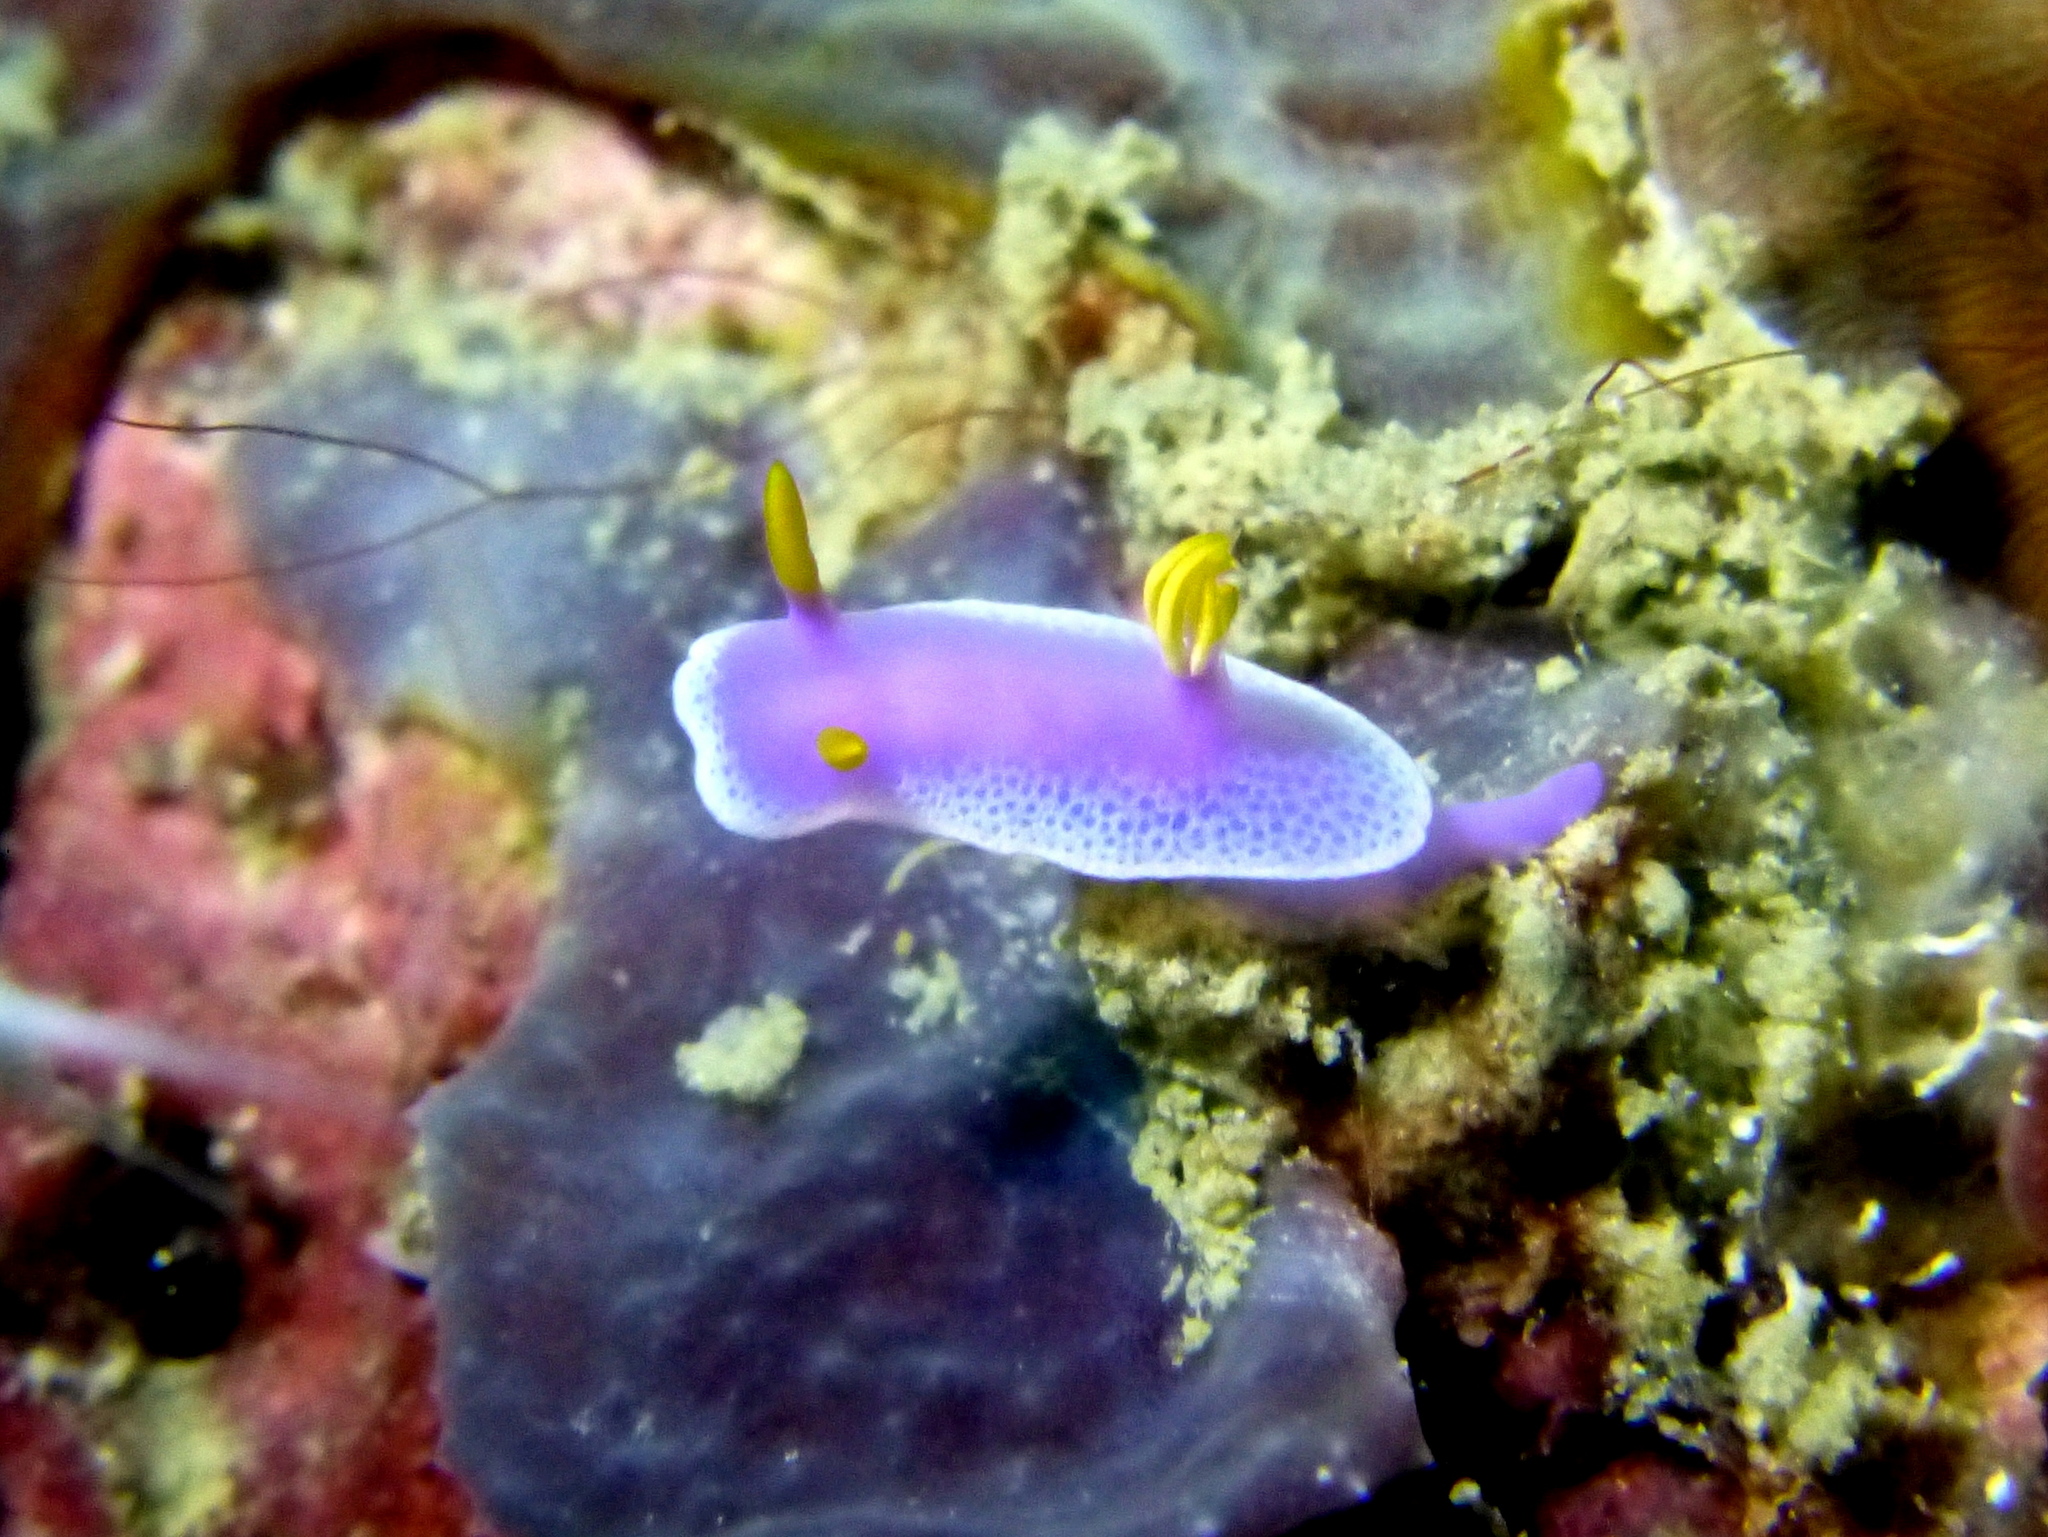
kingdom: Animalia
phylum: Mollusca
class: Gastropoda
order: Nudibranchia
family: Chromodorididae
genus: Hypselodoris
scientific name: Hypselodoris apolegma
